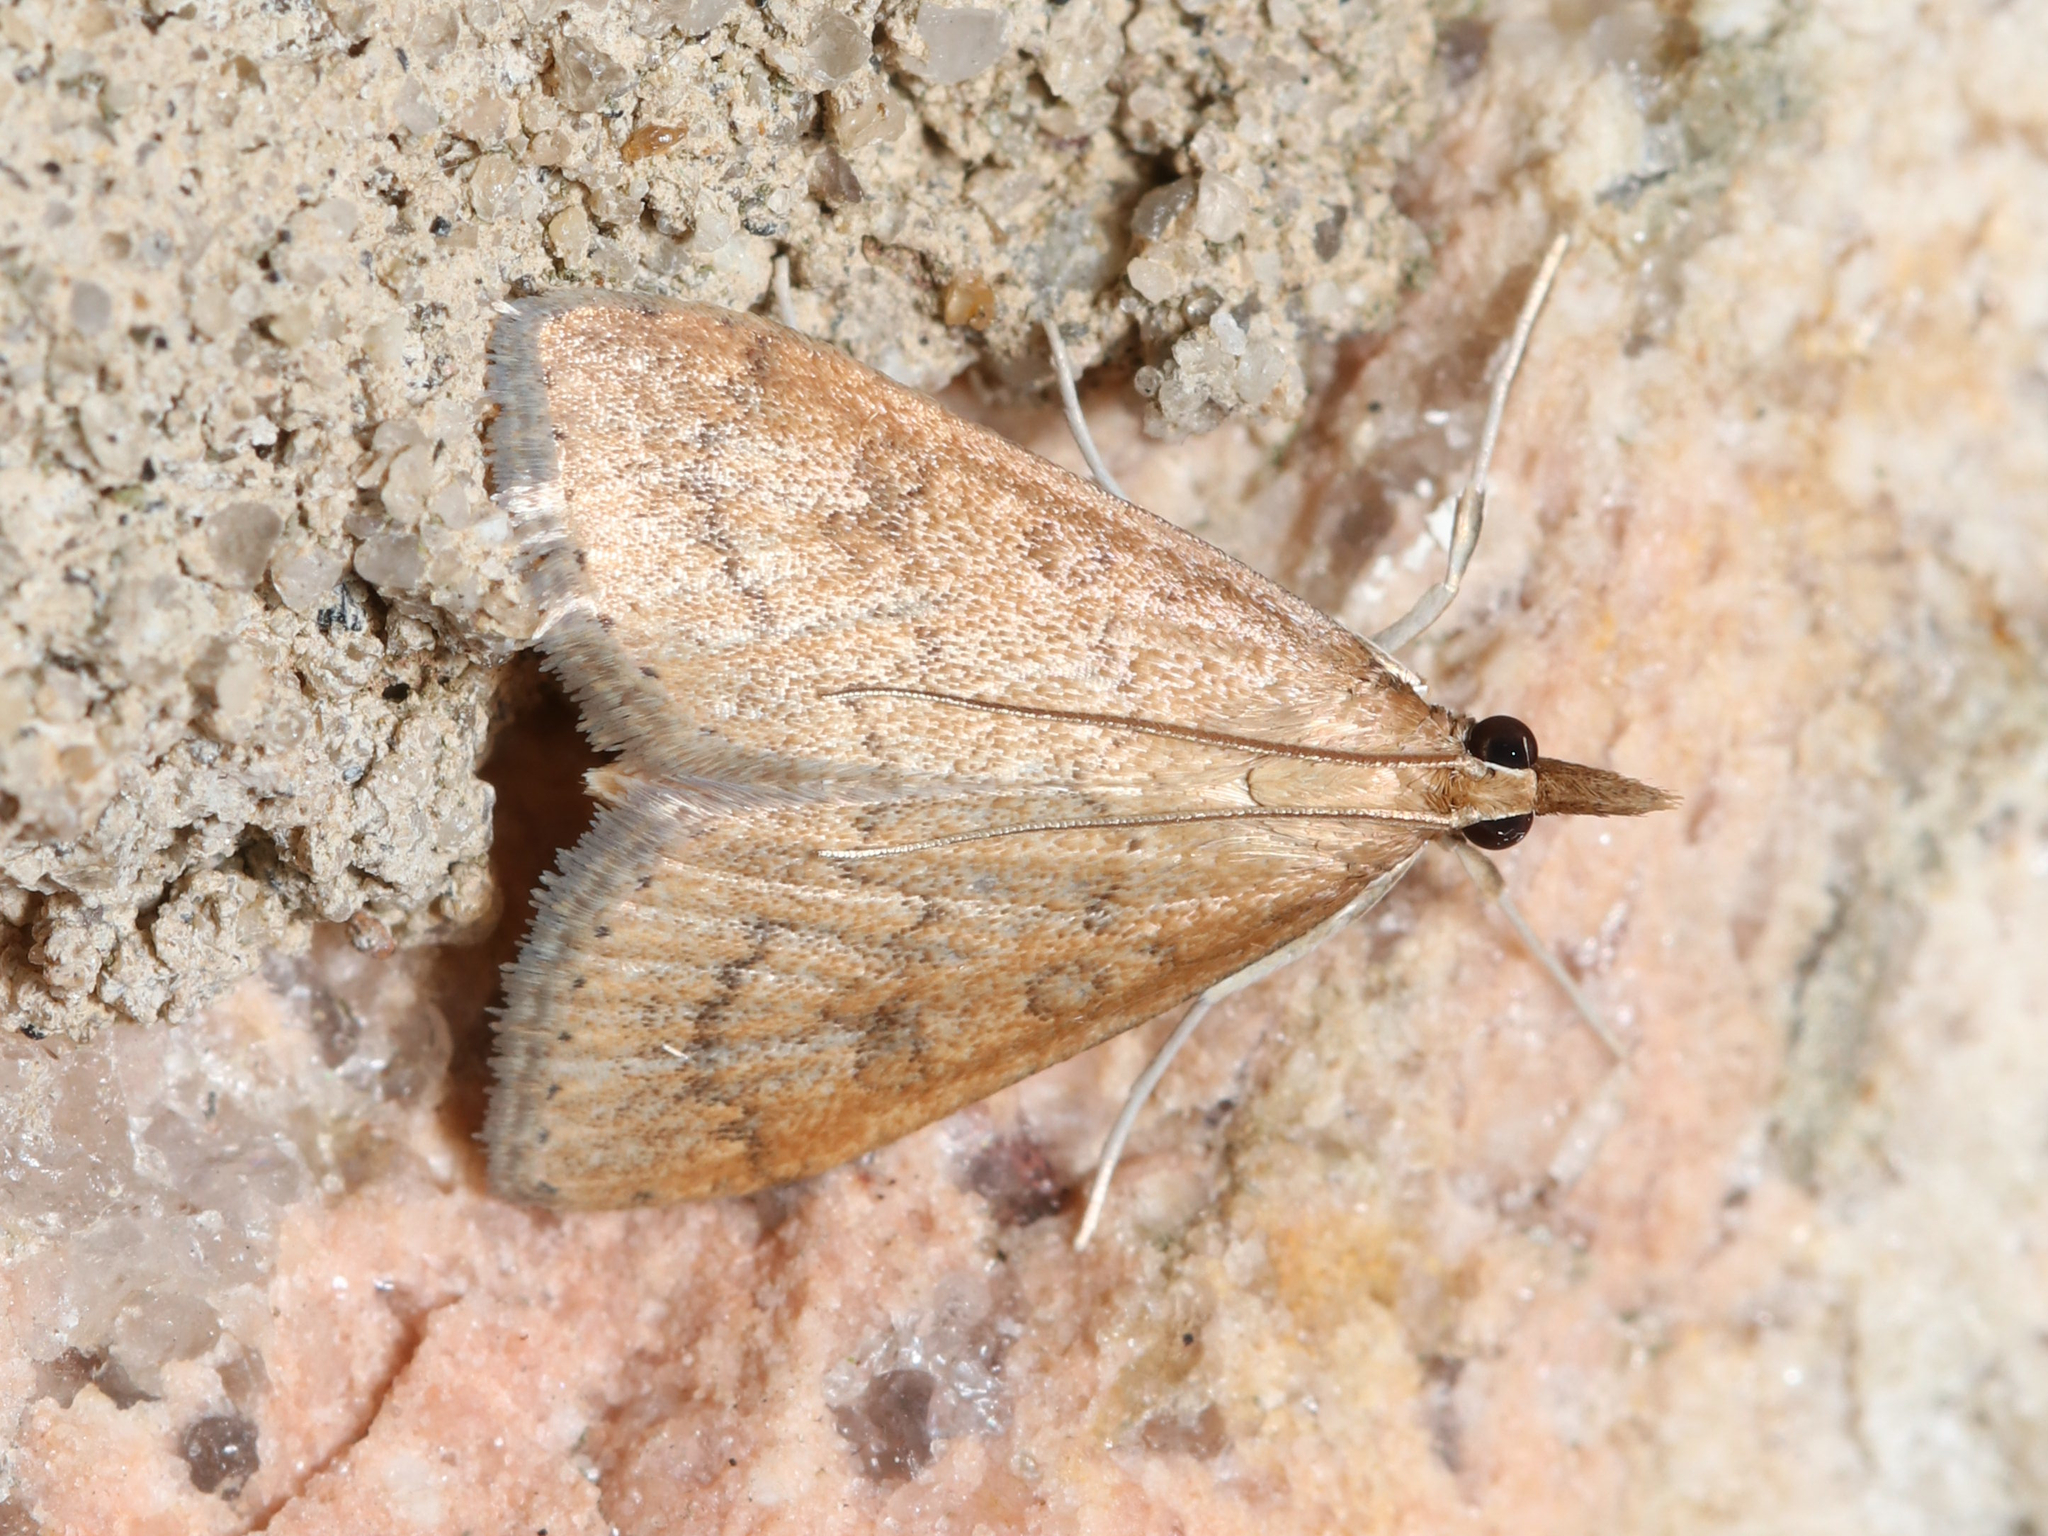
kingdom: Animalia
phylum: Arthropoda
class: Insecta
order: Lepidoptera
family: Crambidae
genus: Udea
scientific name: Udea rubigalis
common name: Celery leaftier moth
